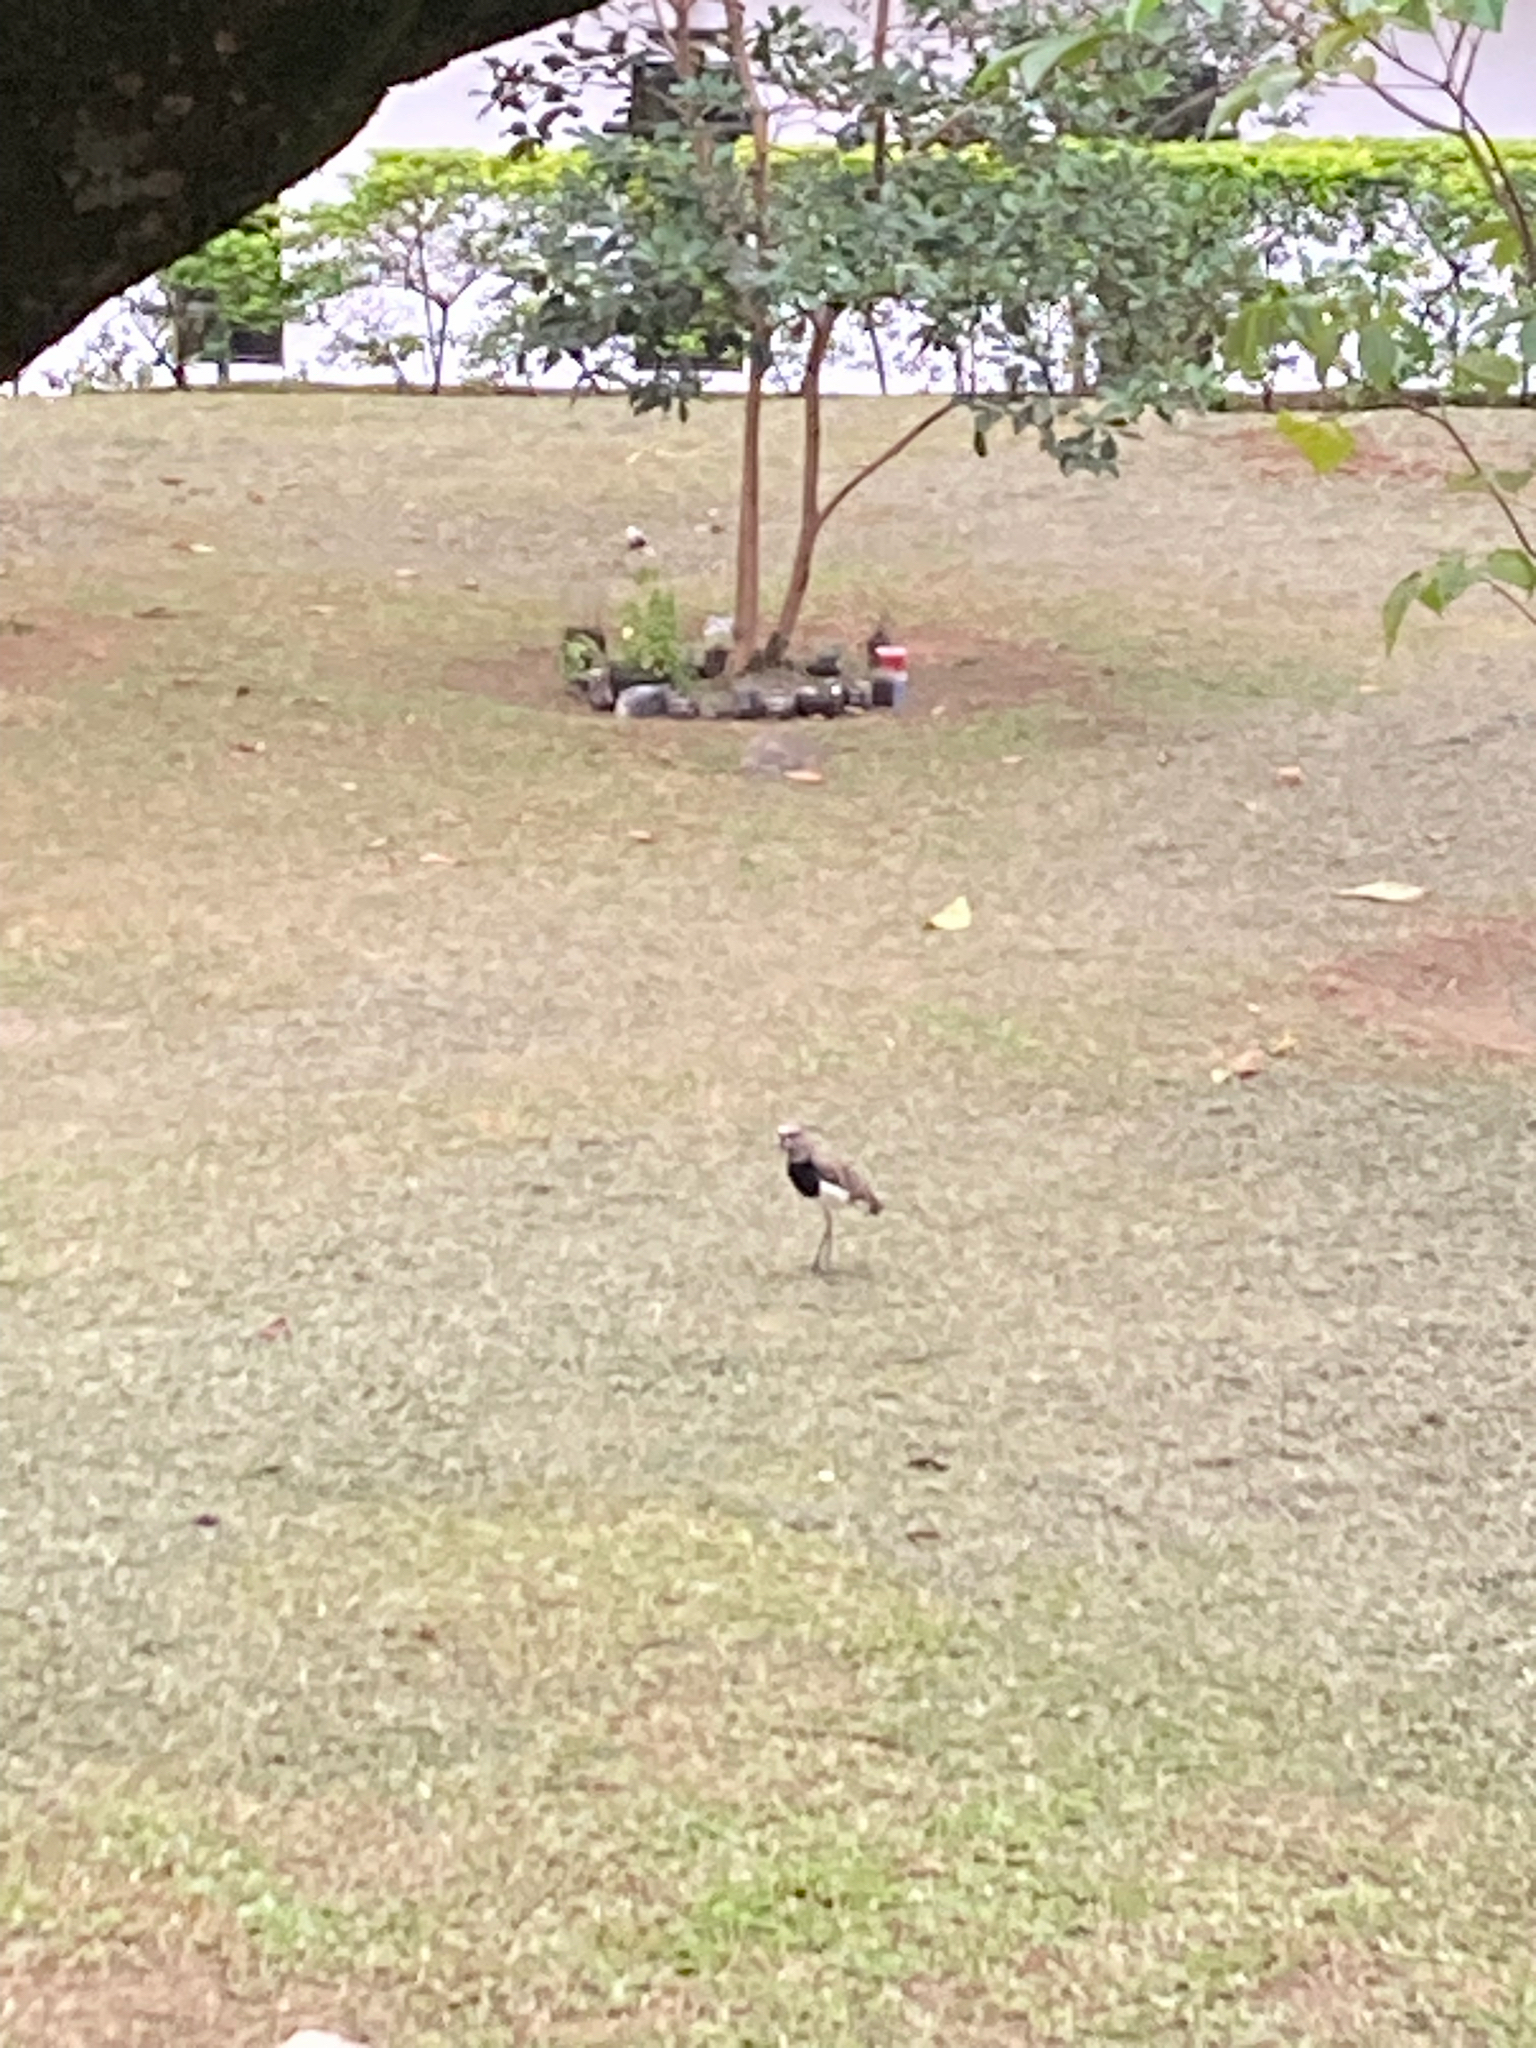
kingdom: Animalia
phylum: Chordata
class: Aves
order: Charadriiformes
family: Charadriidae
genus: Vanellus
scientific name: Vanellus chilensis
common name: Southern lapwing
